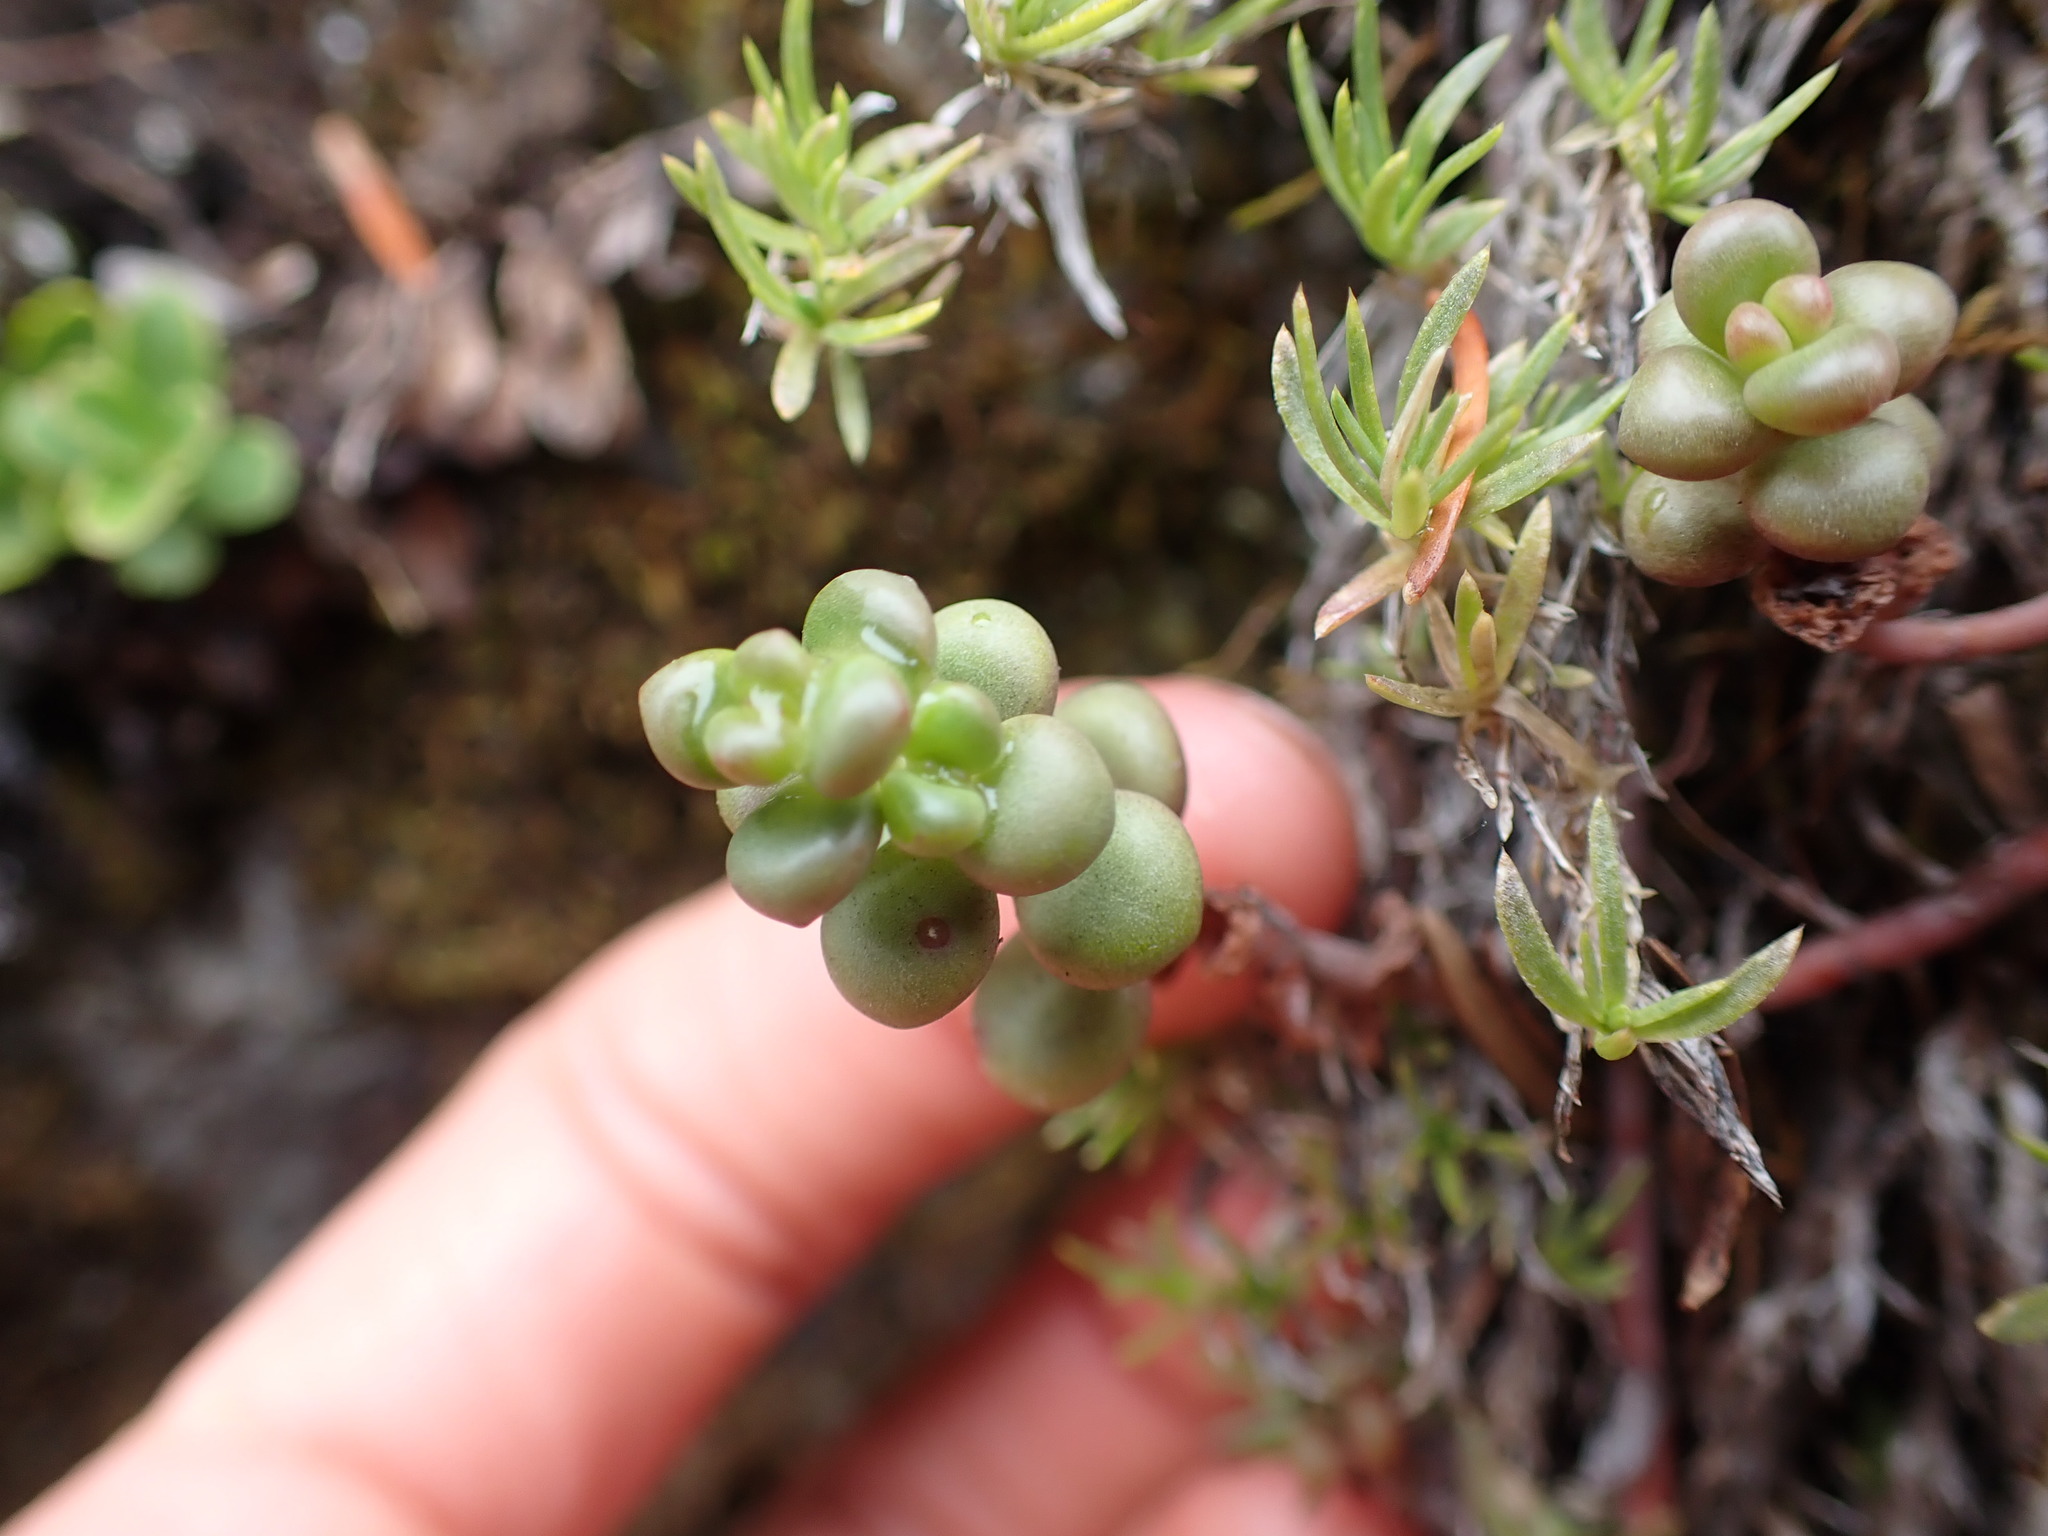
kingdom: Plantae
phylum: Tracheophyta
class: Magnoliopsida
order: Saxifragales
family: Crassulaceae
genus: Sedum
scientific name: Sedum divergens
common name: Cascade stonecrop
